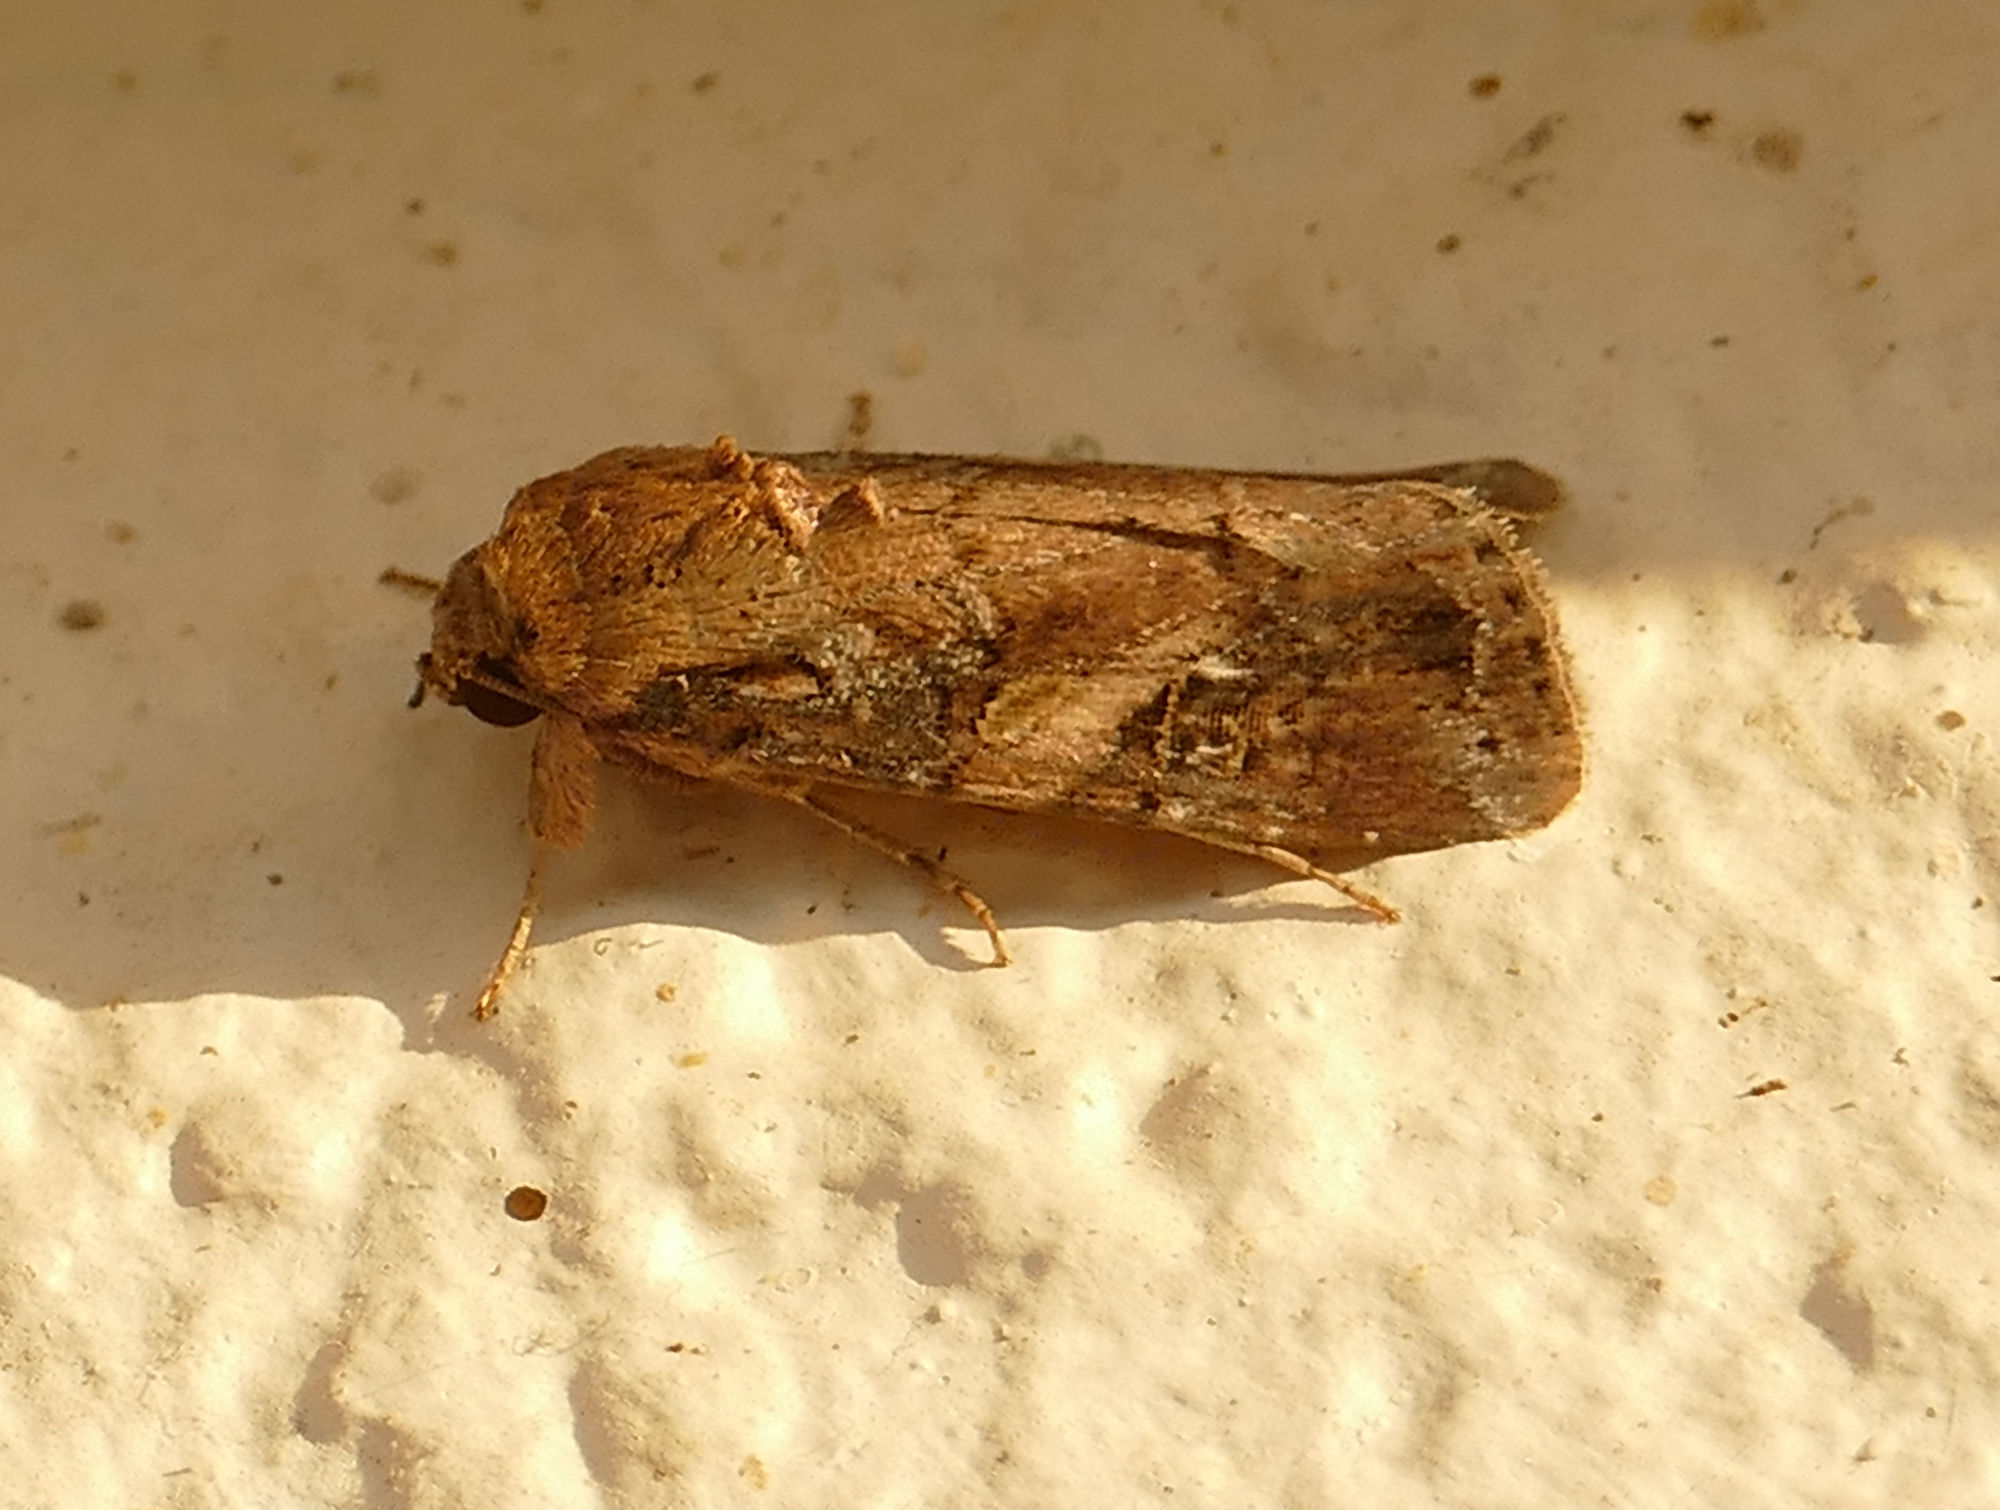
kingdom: Animalia
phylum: Arthropoda
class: Insecta
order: Lepidoptera
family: Noctuidae
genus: Spodoptera
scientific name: Spodoptera frugiperda
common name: Fall armyworm
